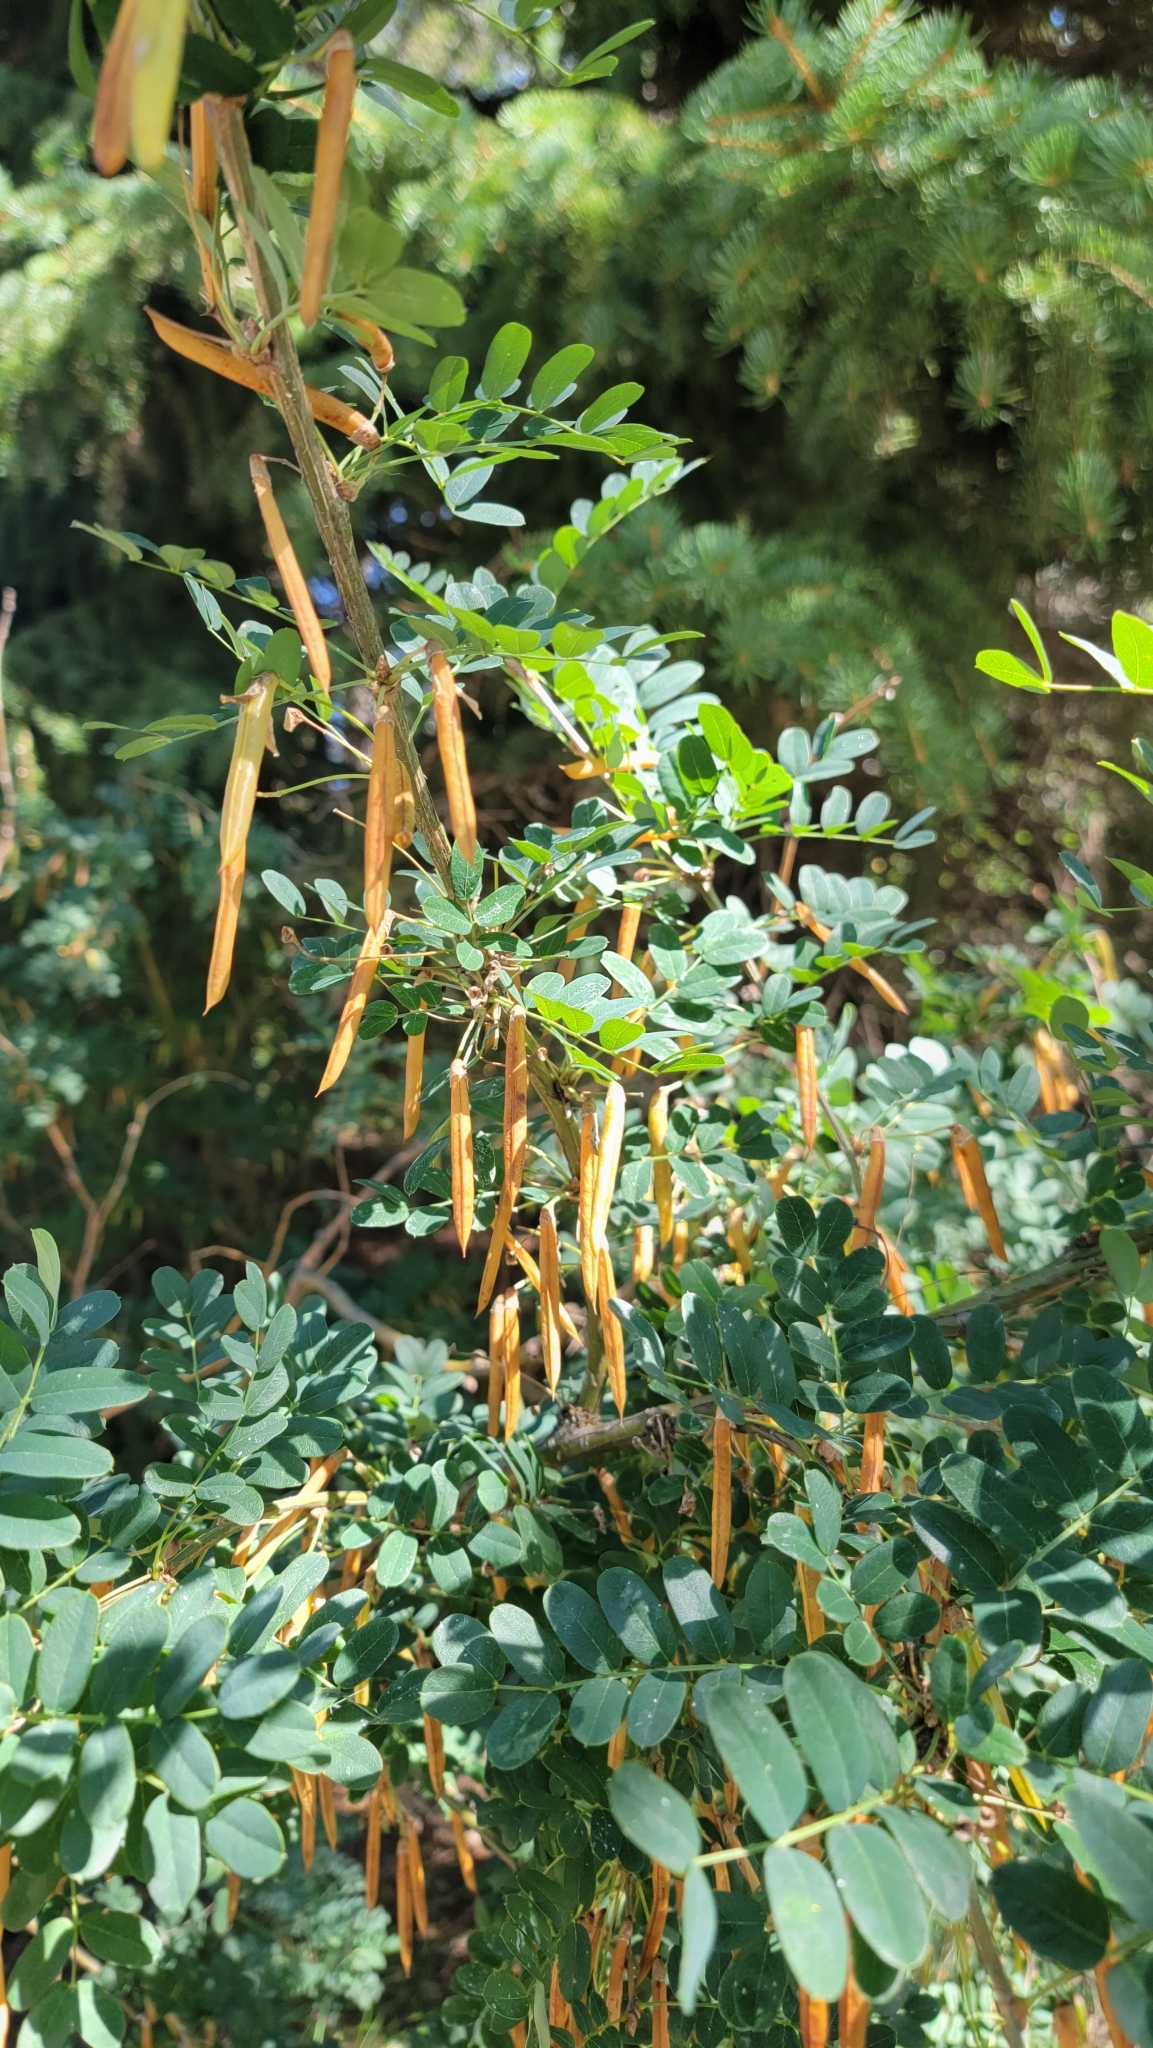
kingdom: Plantae
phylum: Tracheophyta
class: Magnoliopsida
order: Fabales
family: Fabaceae
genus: Caragana
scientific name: Caragana arborescens
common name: Siberian peashrub
